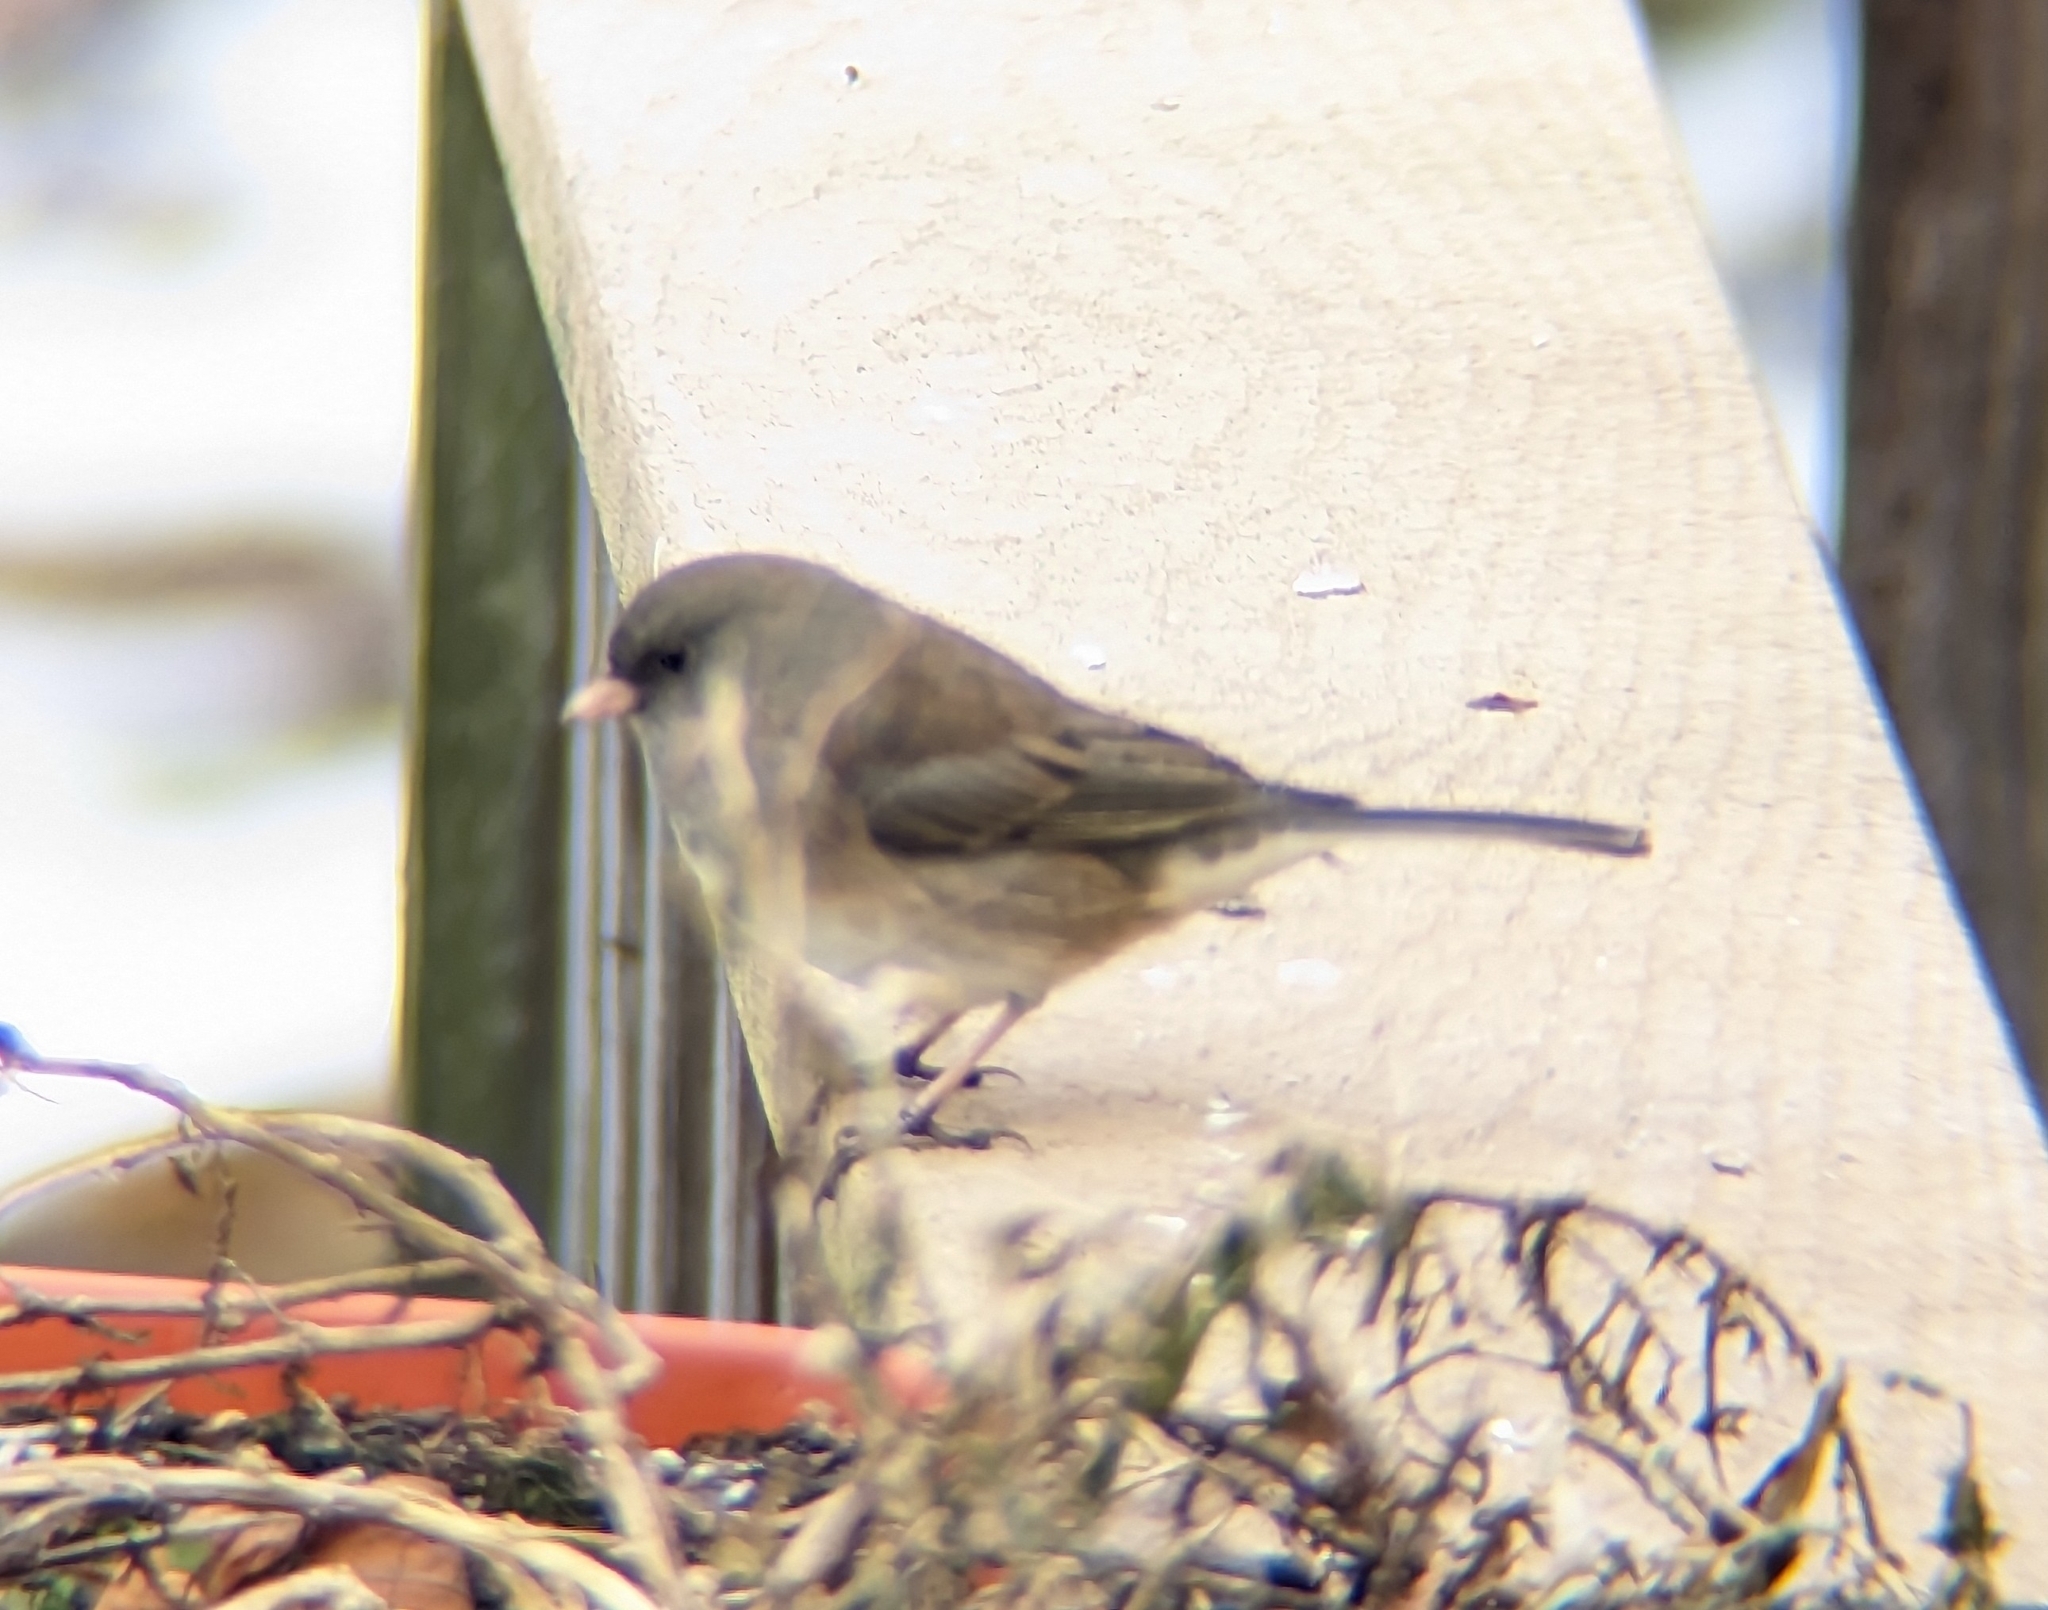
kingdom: Animalia
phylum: Chordata
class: Aves
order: Passeriformes
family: Passerellidae
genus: Junco
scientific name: Junco hyemalis
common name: Dark-eyed junco
